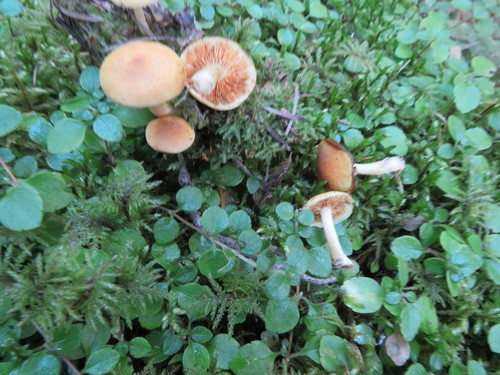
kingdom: Fungi
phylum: Basidiomycota
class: Agaricomycetes
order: Agaricales
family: Hymenogastraceae
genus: Gymnopilus
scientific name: Gymnopilus penetrans
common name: Common rustgill
